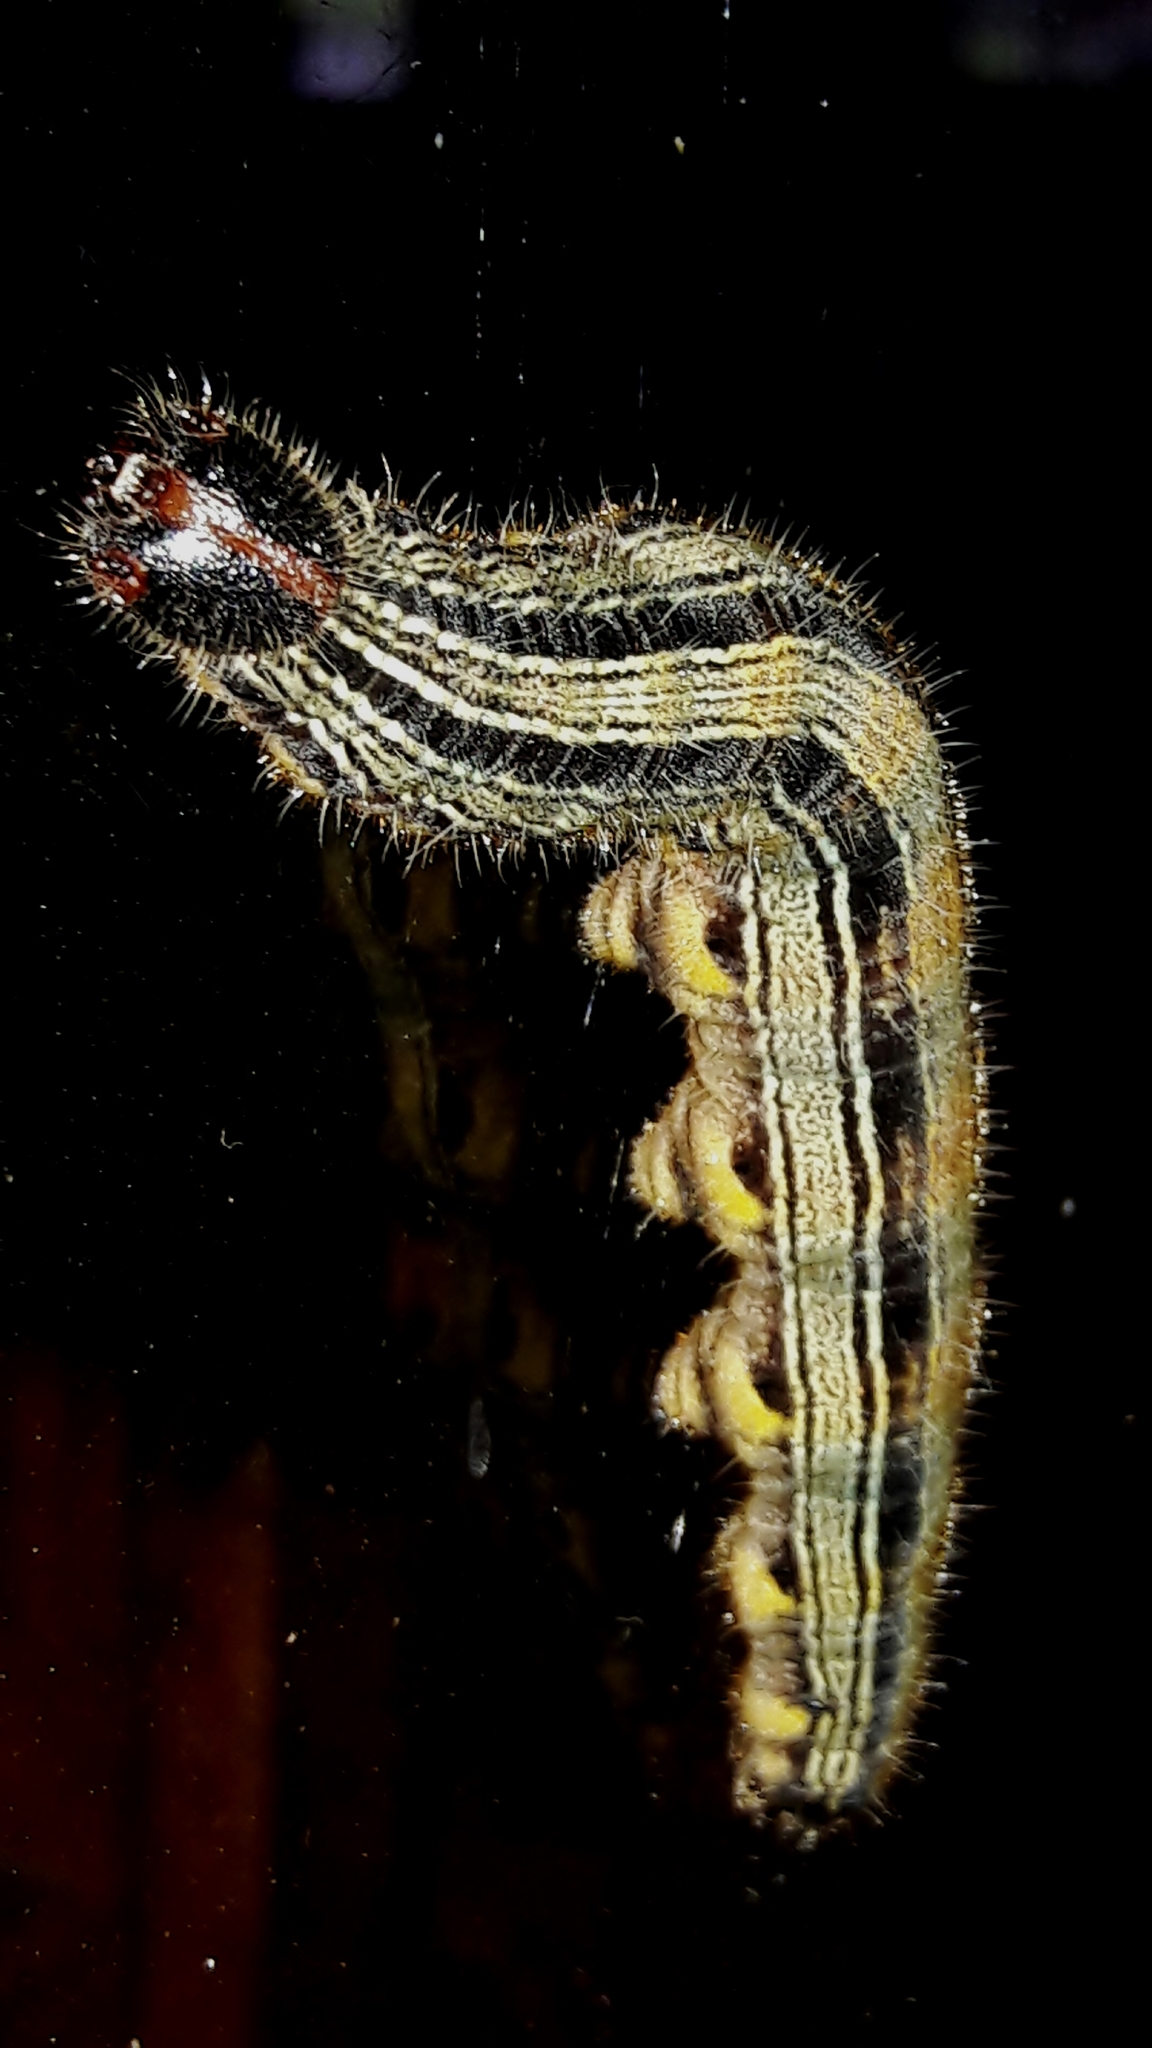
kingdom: Animalia
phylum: Arthropoda
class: Insecta
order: Lepidoptera
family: Nymphalidae
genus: Brassolis
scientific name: Brassolis sophorae
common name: Coconut caterpillar
